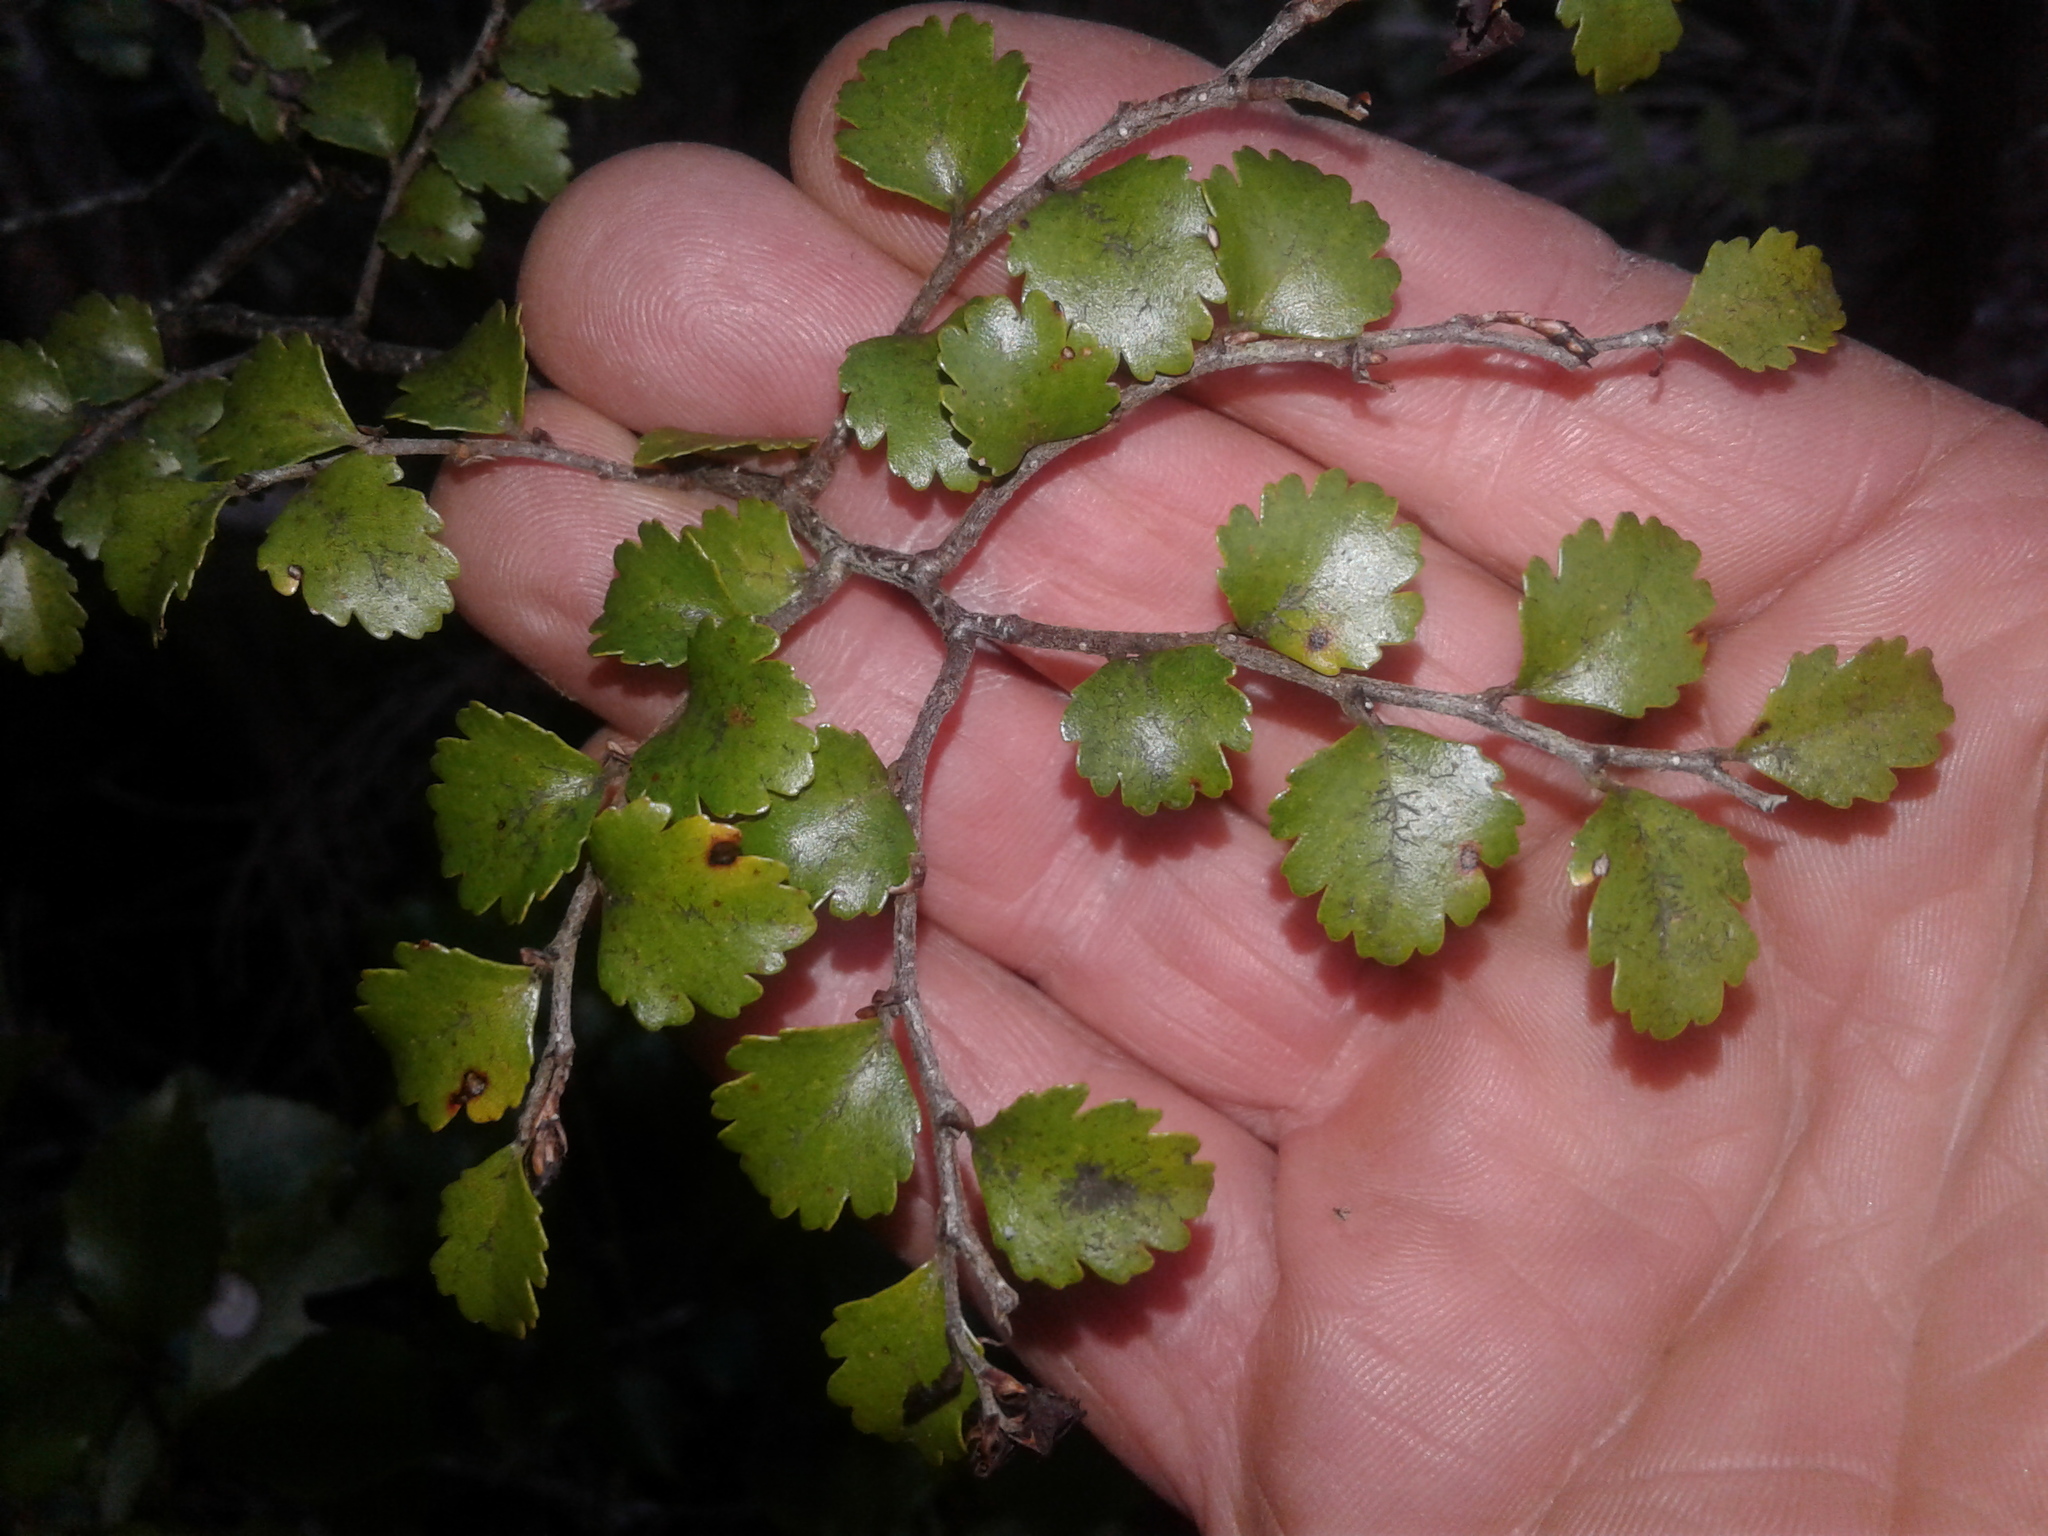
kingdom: Plantae
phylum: Tracheophyta
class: Magnoliopsida
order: Fagales
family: Nothofagaceae
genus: Nothofagus
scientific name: Nothofagus menziesii
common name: Silver beech
